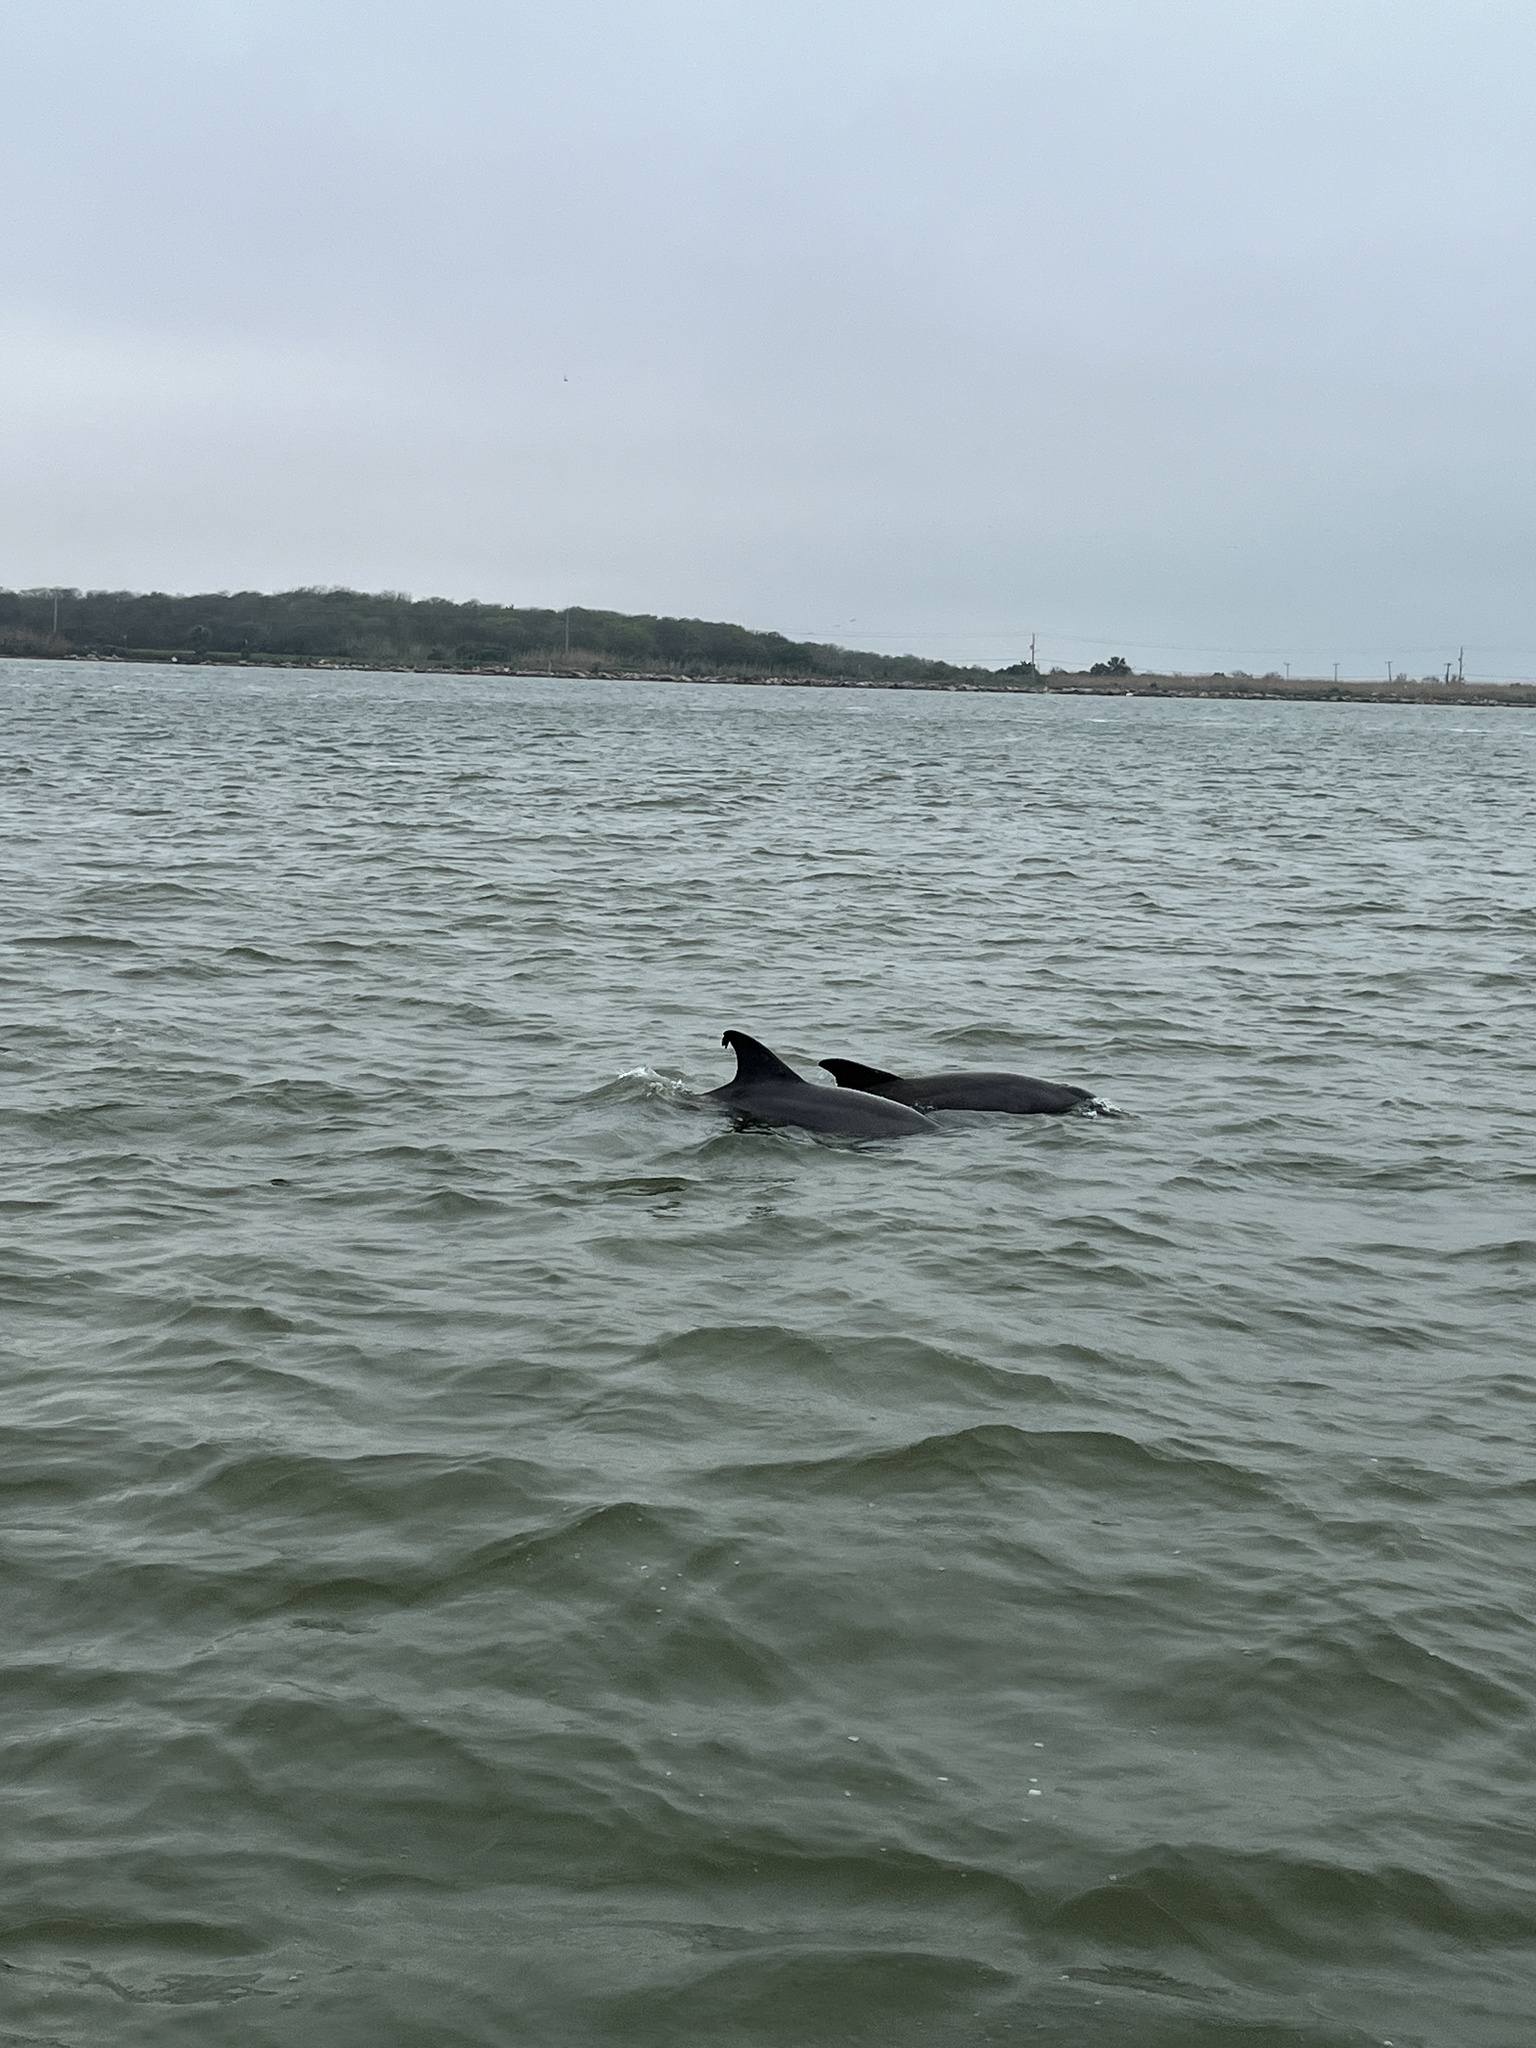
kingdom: Animalia
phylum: Chordata
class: Mammalia
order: Cetacea
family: Delphinidae
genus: Tursiops
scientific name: Tursiops truncatus
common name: Bottlenose dolphin
